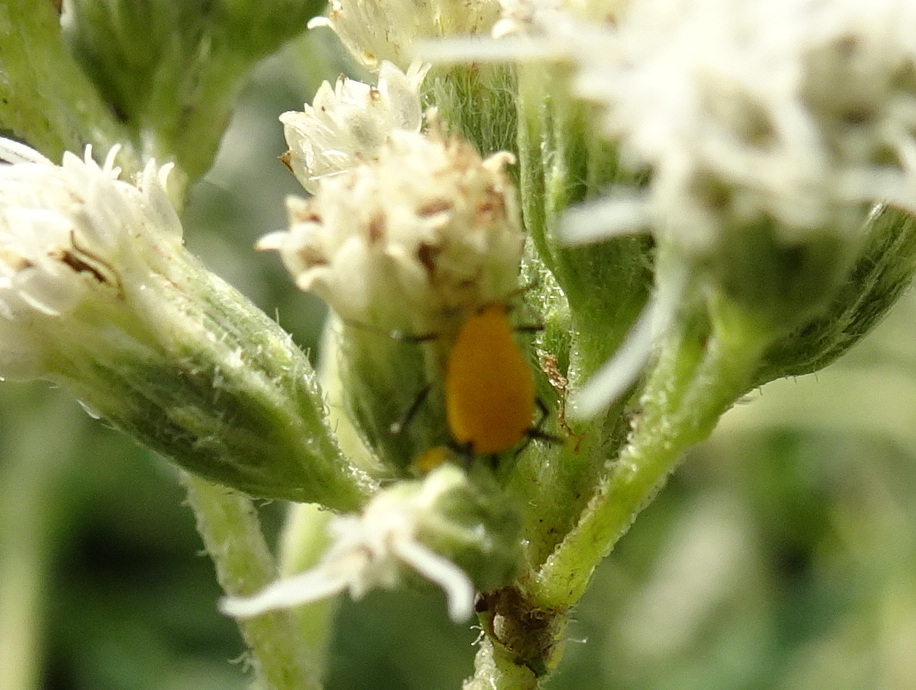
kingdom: Animalia
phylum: Arthropoda
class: Insecta
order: Hemiptera
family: Aphididae
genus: Aphis
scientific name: Aphis nerii
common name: Oleander aphid
